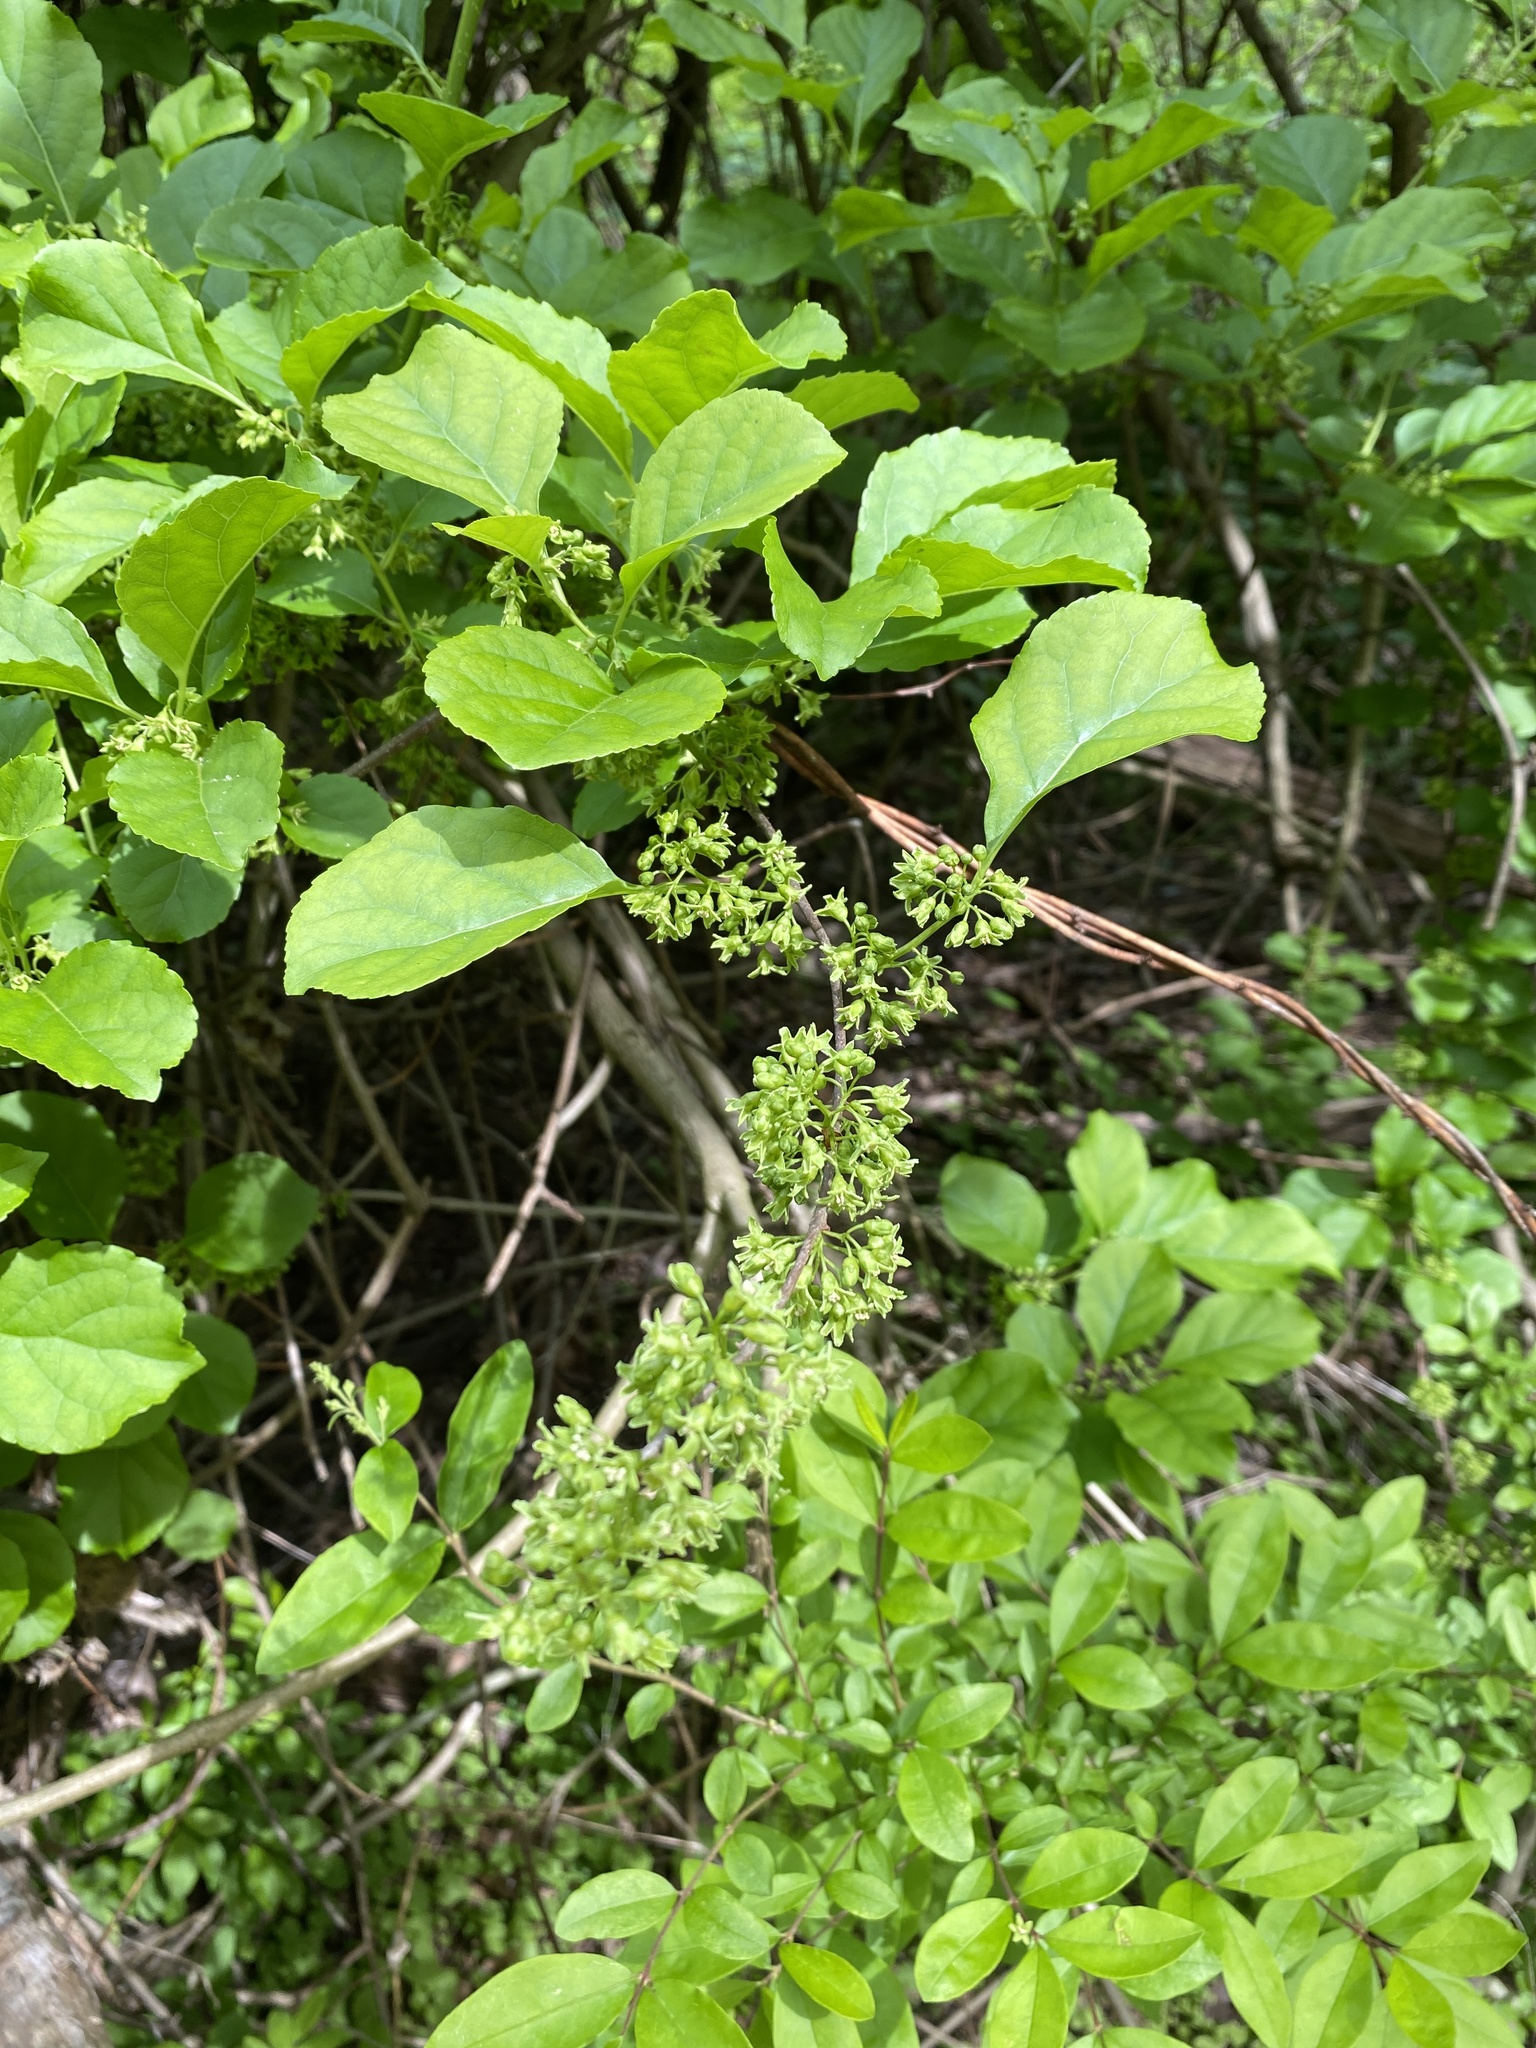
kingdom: Plantae
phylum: Tracheophyta
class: Magnoliopsida
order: Celastrales
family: Celastraceae
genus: Celastrus
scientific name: Celastrus orbiculatus
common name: Oriental bittersweet
